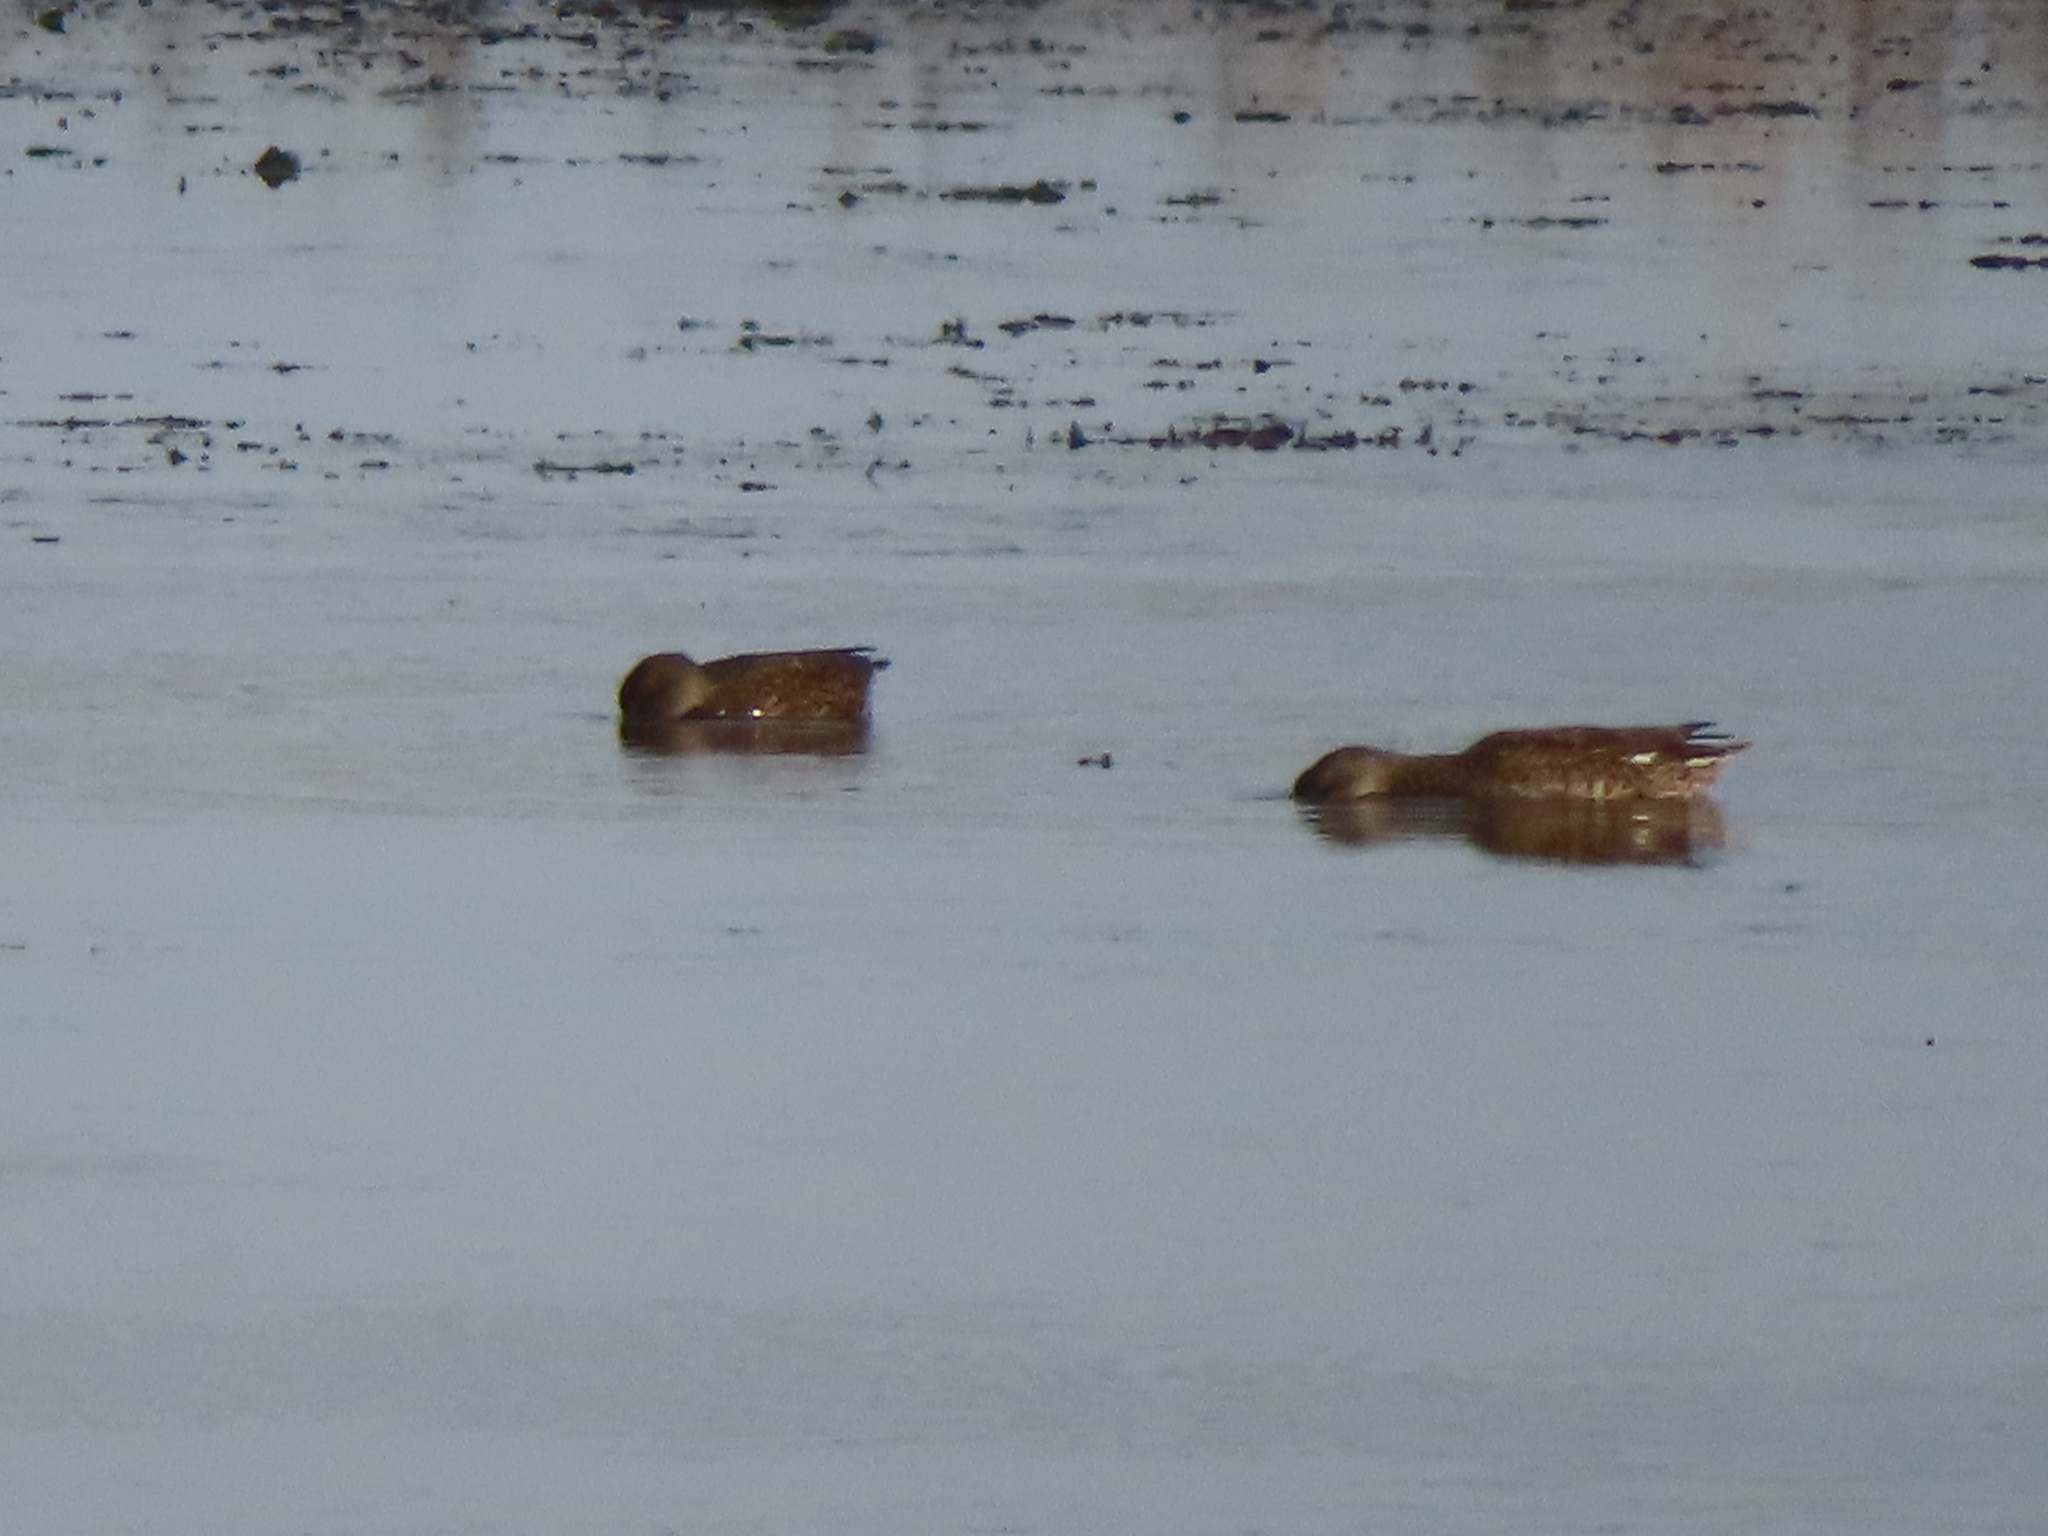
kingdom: Animalia
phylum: Chordata
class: Aves
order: Anseriformes
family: Anatidae
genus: Mareca
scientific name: Mareca strepera
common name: Gadwall
